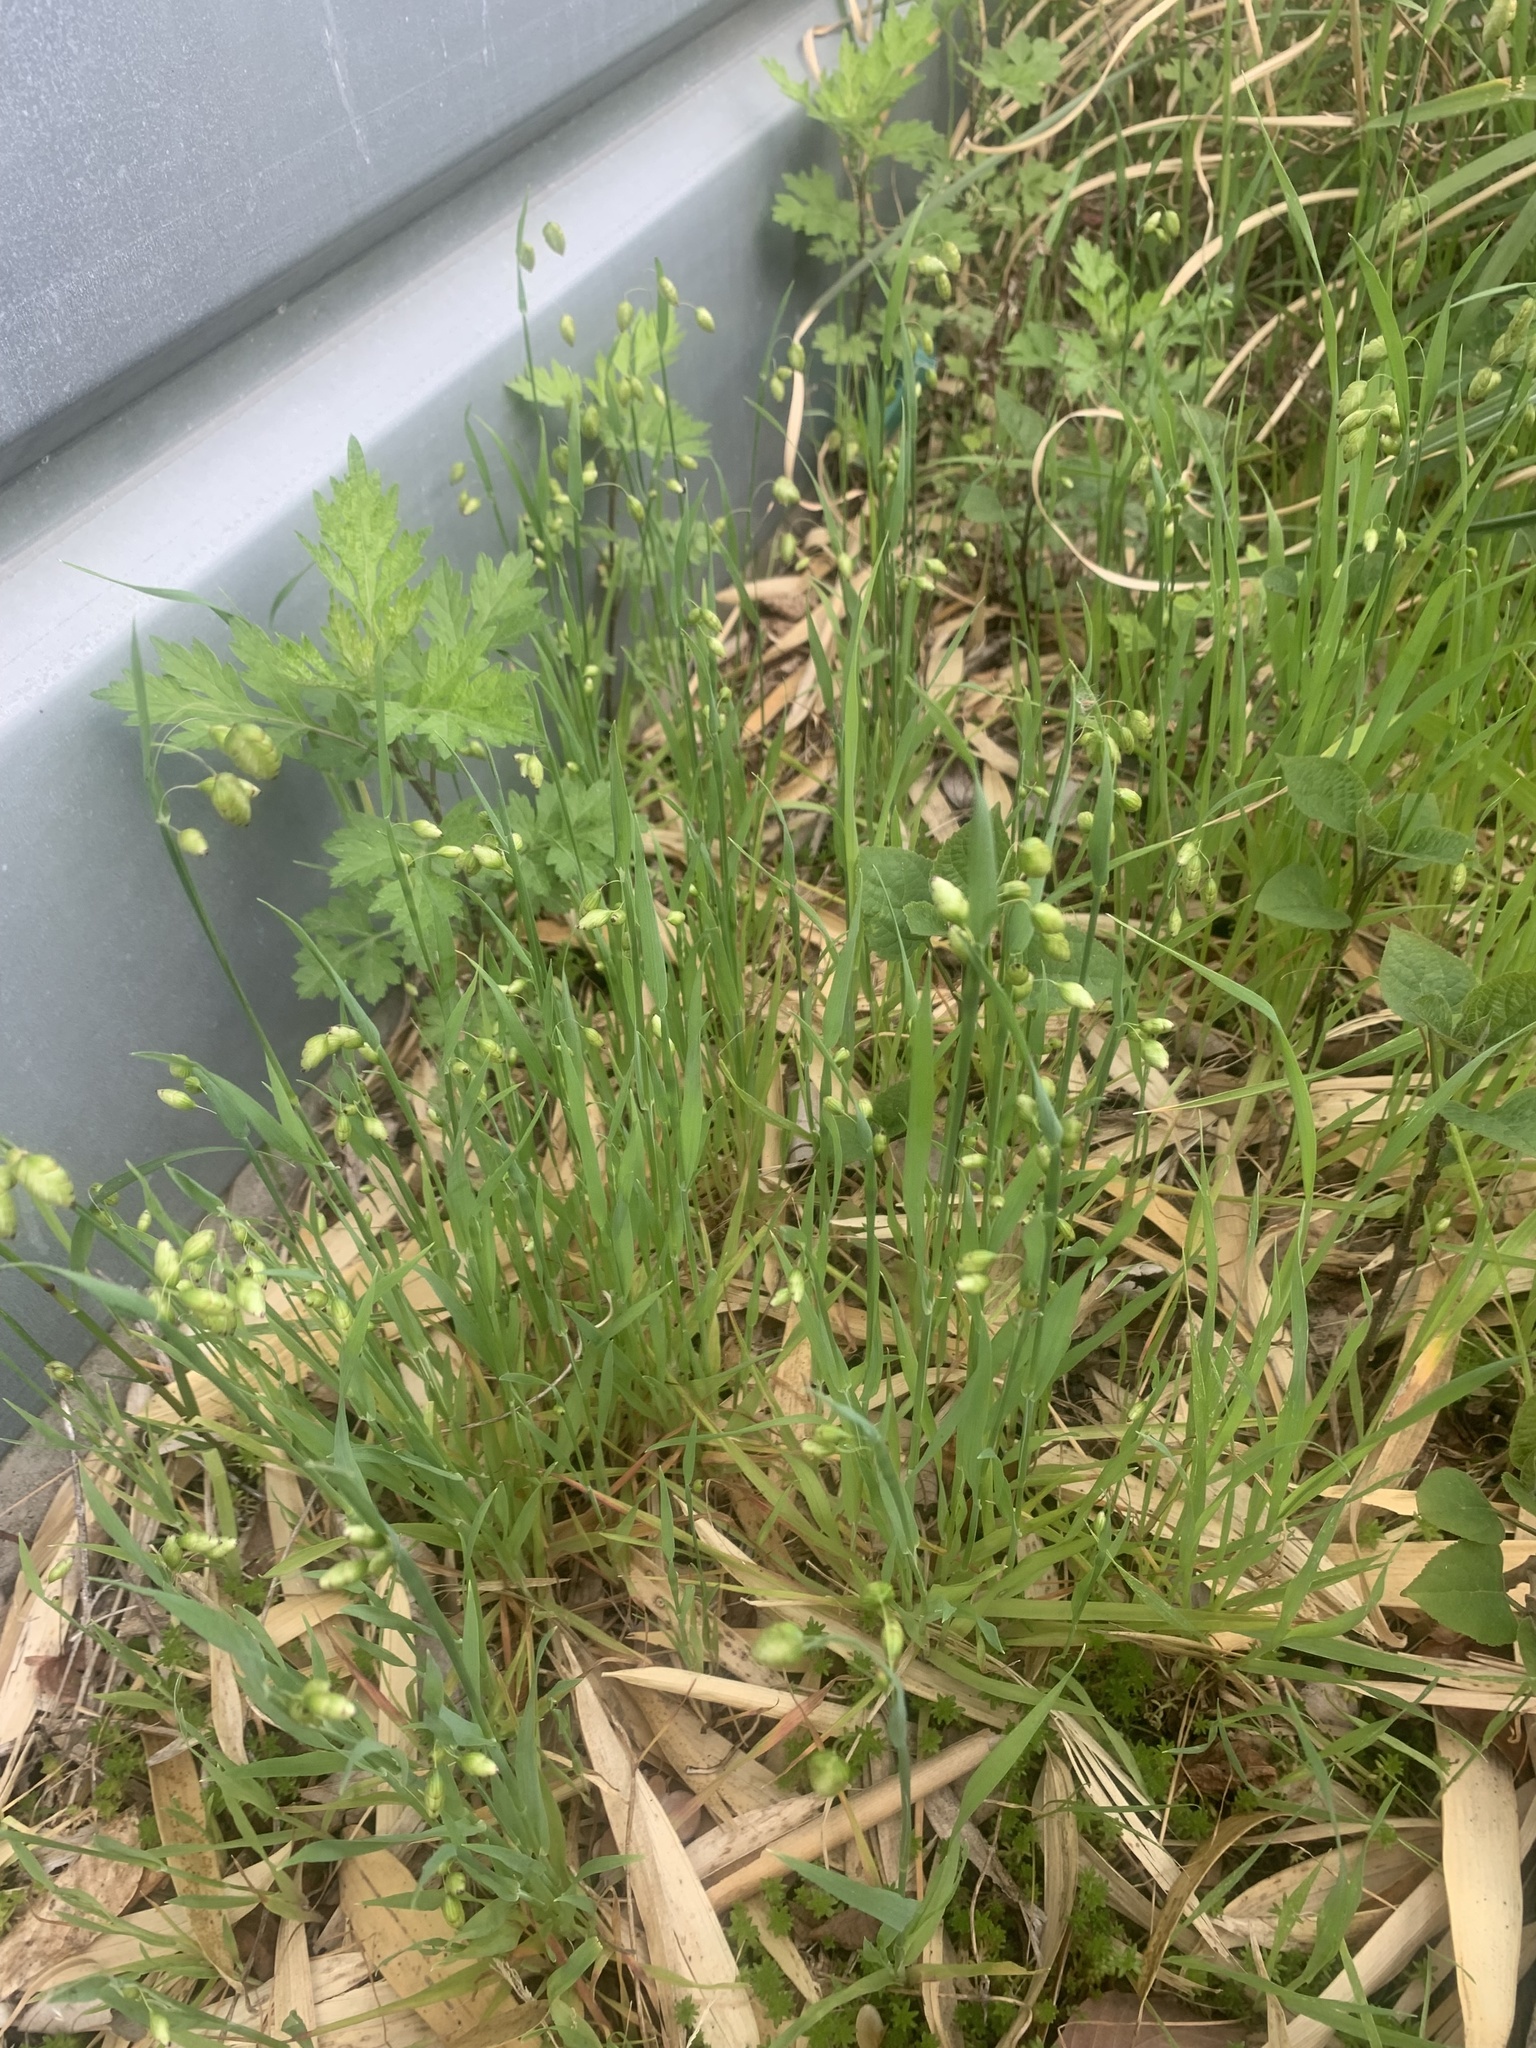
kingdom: Plantae
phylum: Tracheophyta
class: Liliopsida
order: Poales
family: Poaceae
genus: Briza
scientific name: Briza maxima
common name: Big quakinggrass
